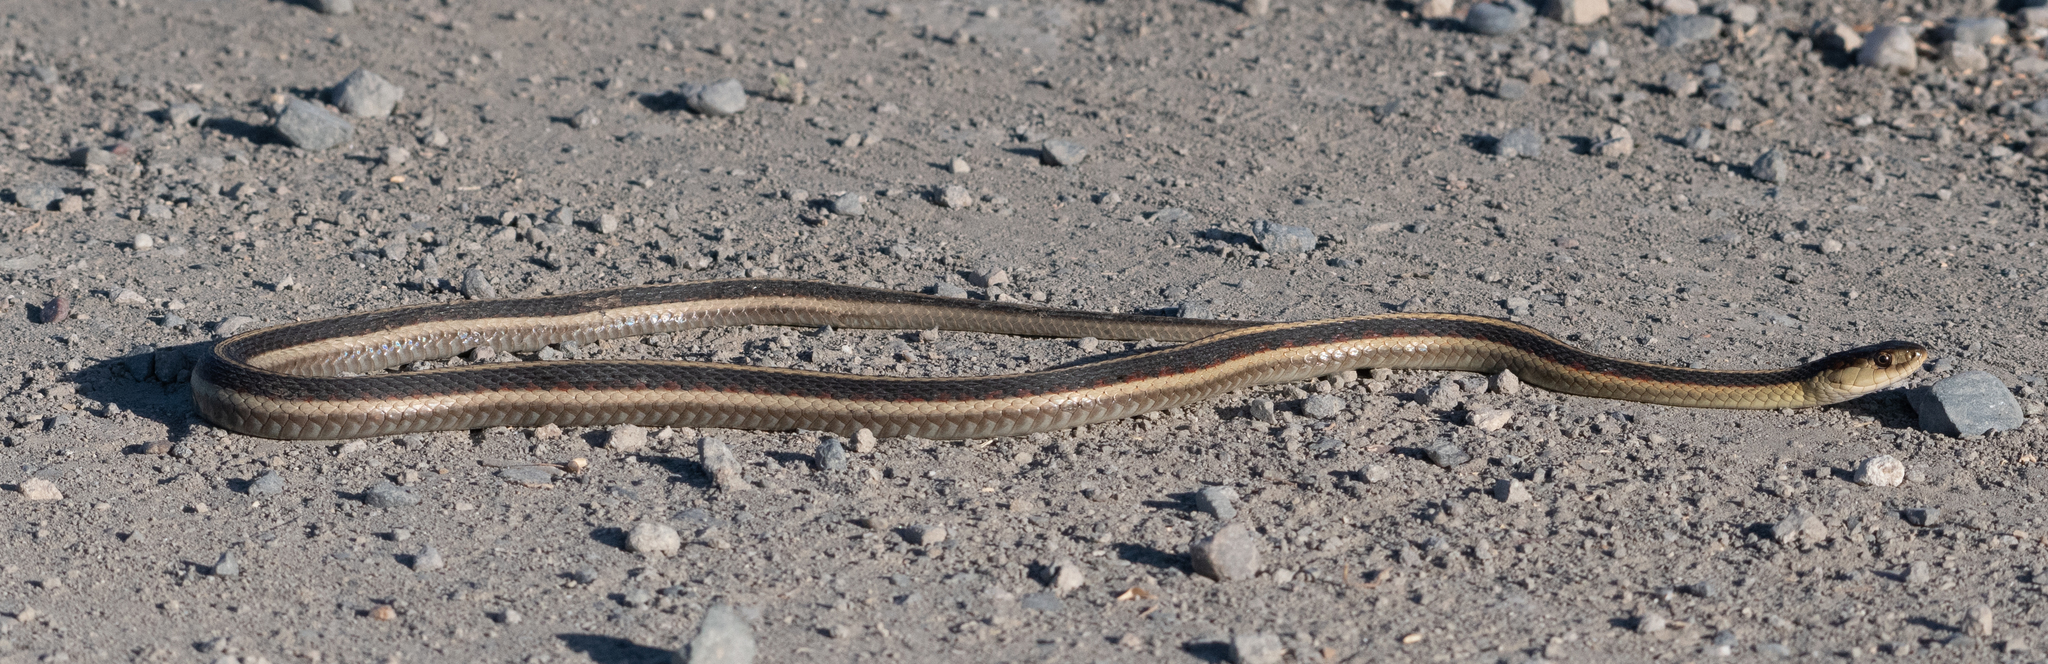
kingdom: Animalia
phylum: Chordata
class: Squamata
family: Colubridae
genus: Thamnophis
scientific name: Thamnophis sirtalis
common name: Common garter snake
